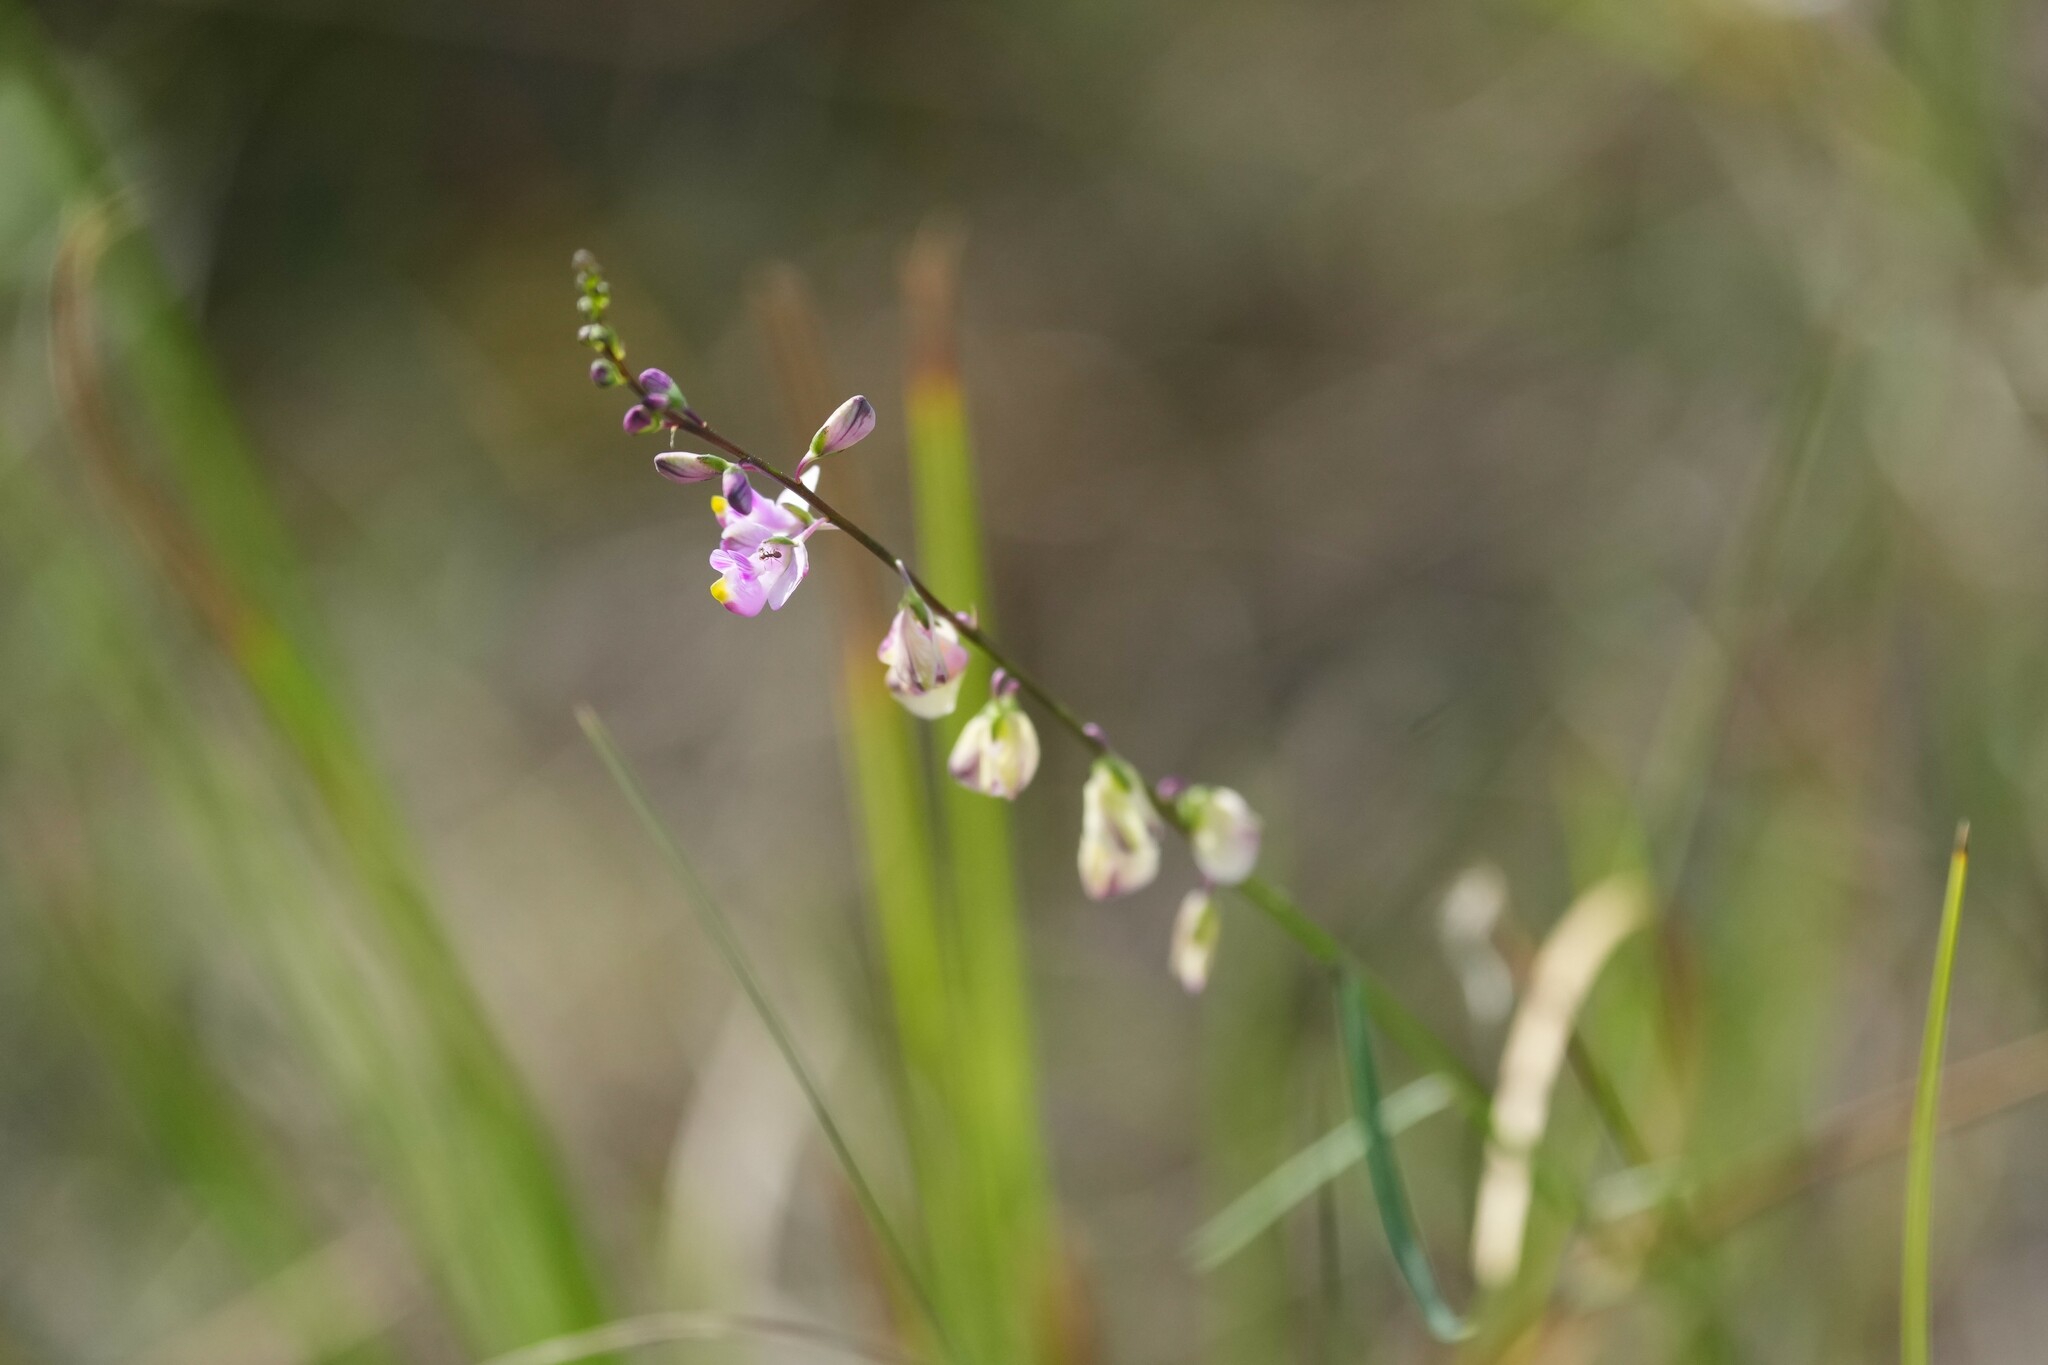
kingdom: Plantae
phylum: Tracheophyta
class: Magnoliopsida
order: Fabales
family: Polygalaceae
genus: Asemeia
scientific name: Asemeia grandiflora
